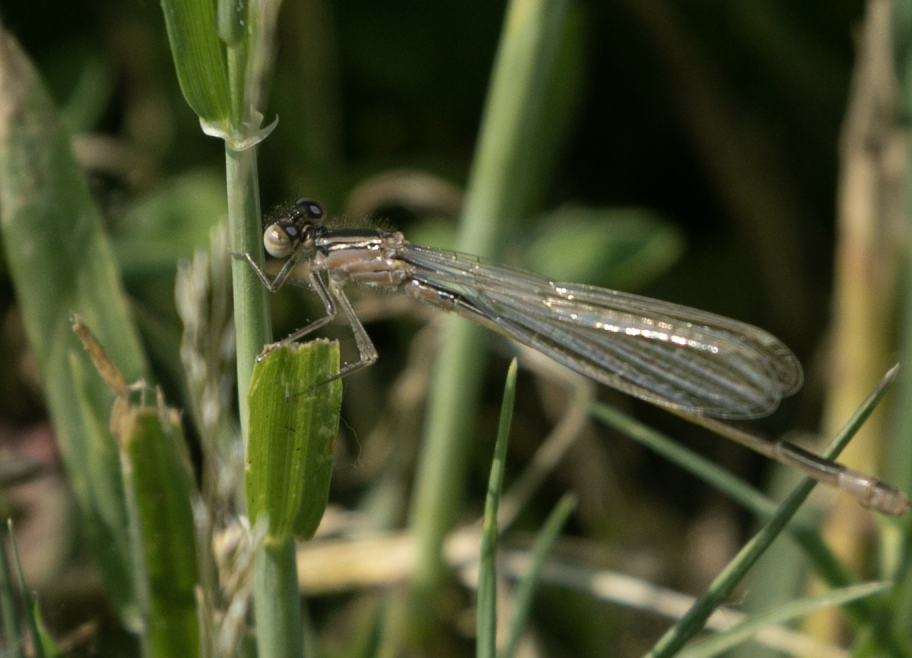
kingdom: Animalia
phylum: Arthropoda
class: Insecta
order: Odonata
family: Coenagrionidae
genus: Ischnura
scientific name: Ischnura elegans
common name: Blue-tailed damselfly
